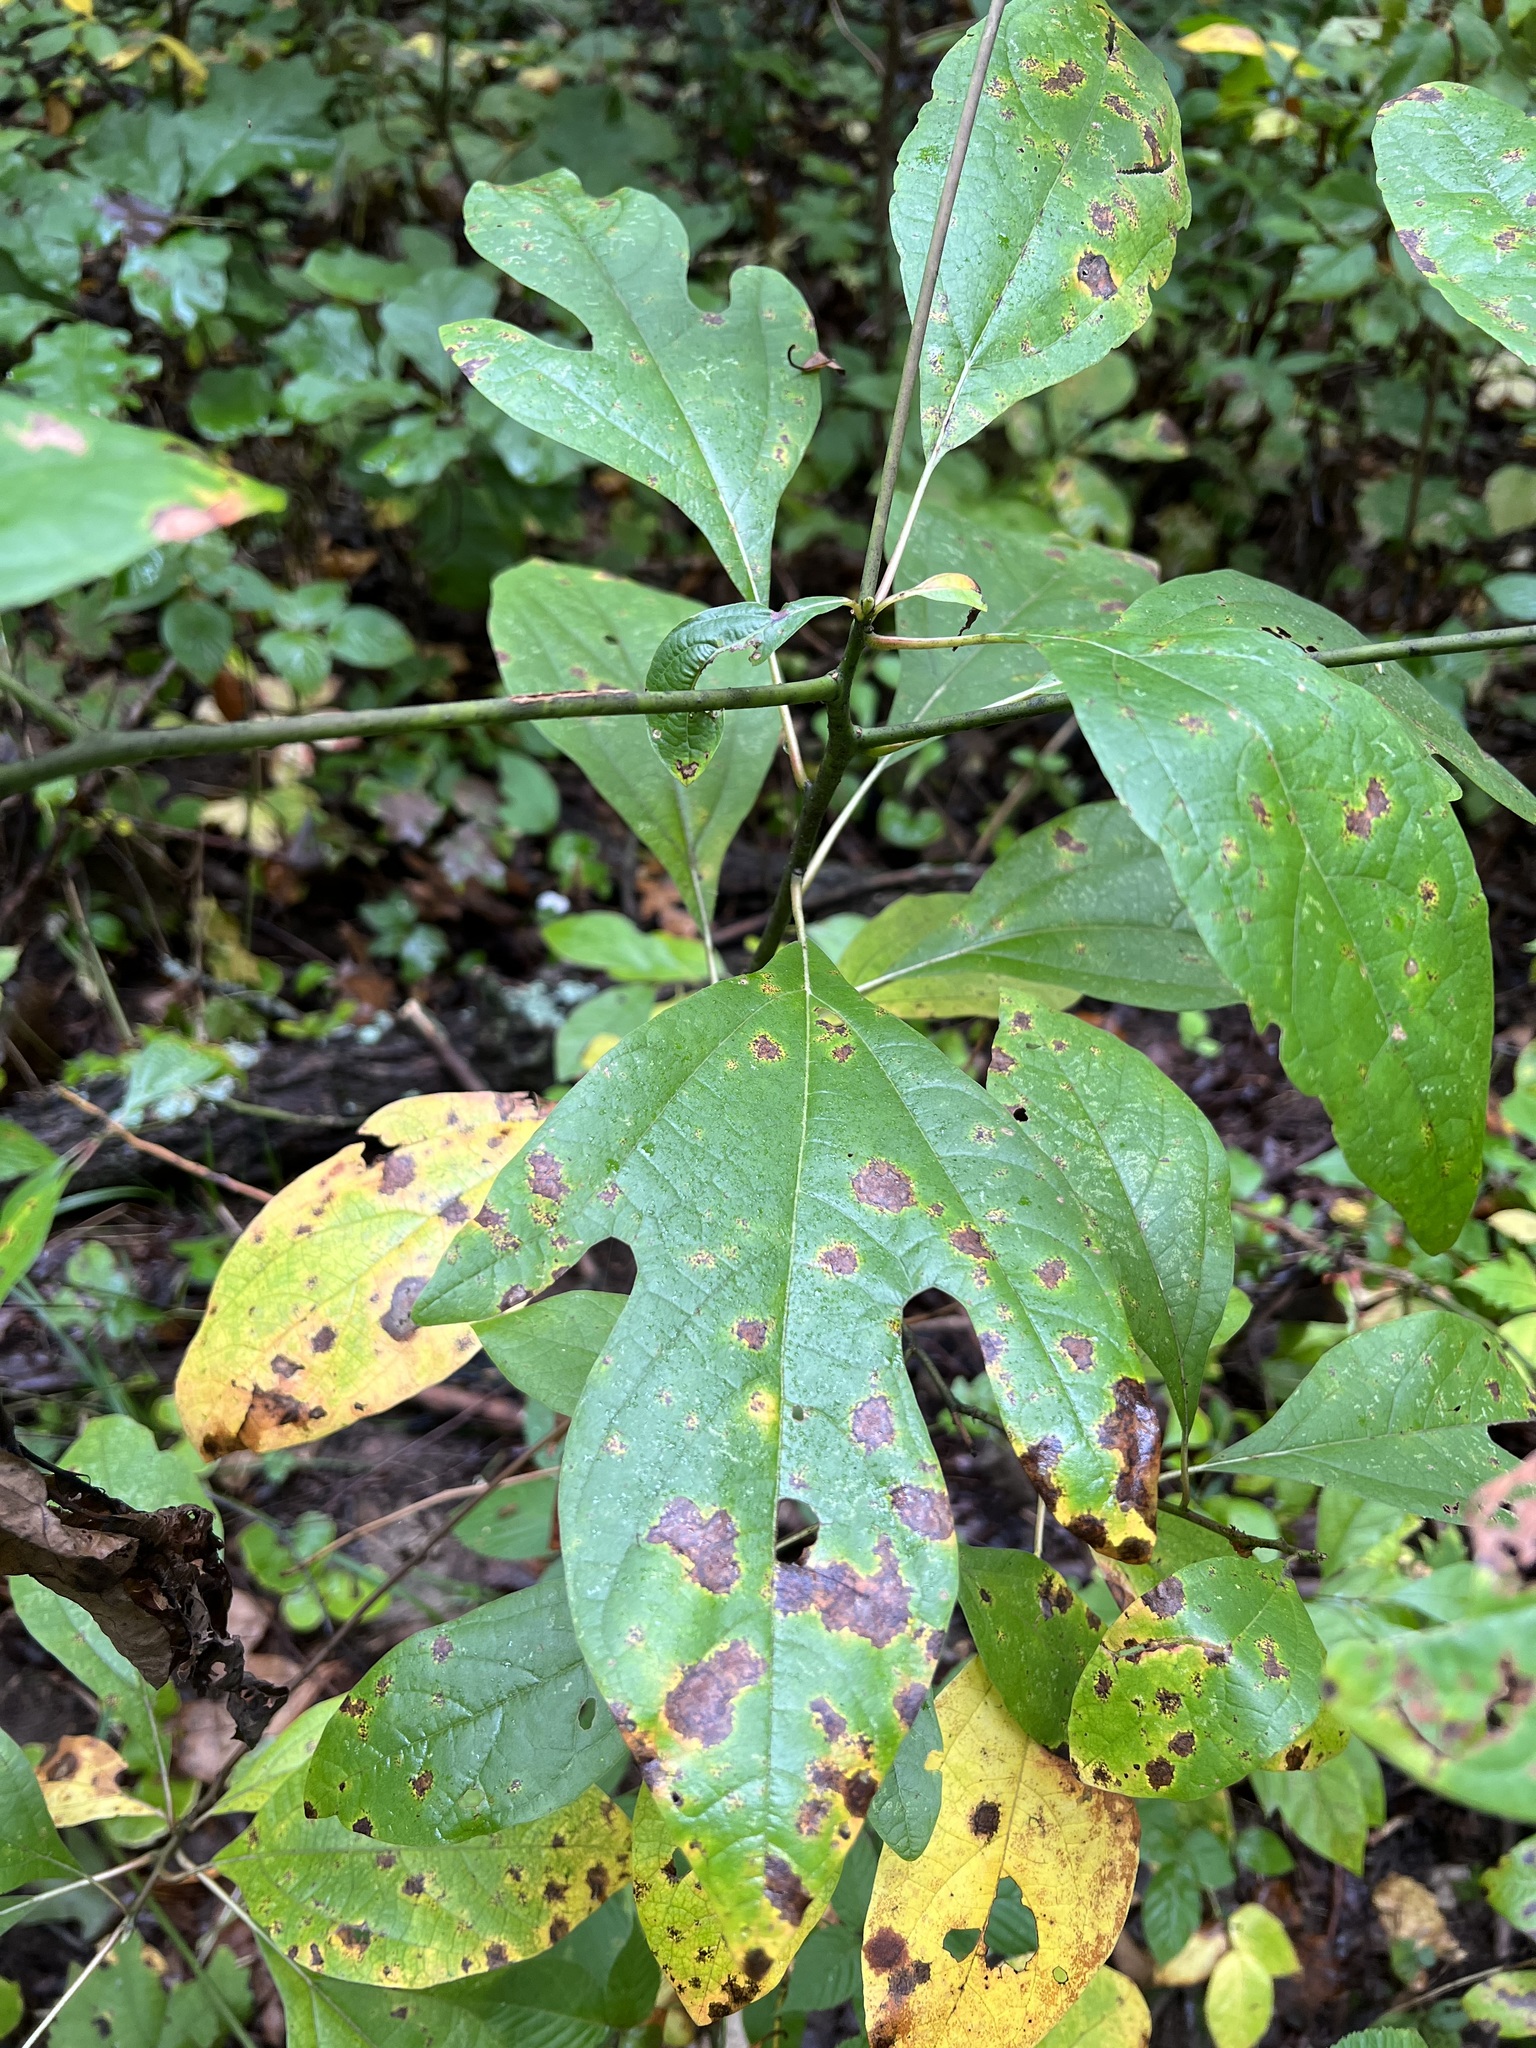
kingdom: Plantae
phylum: Tracheophyta
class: Magnoliopsida
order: Laurales
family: Lauraceae
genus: Sassafras
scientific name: Sassafras albidum
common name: Sassafras
